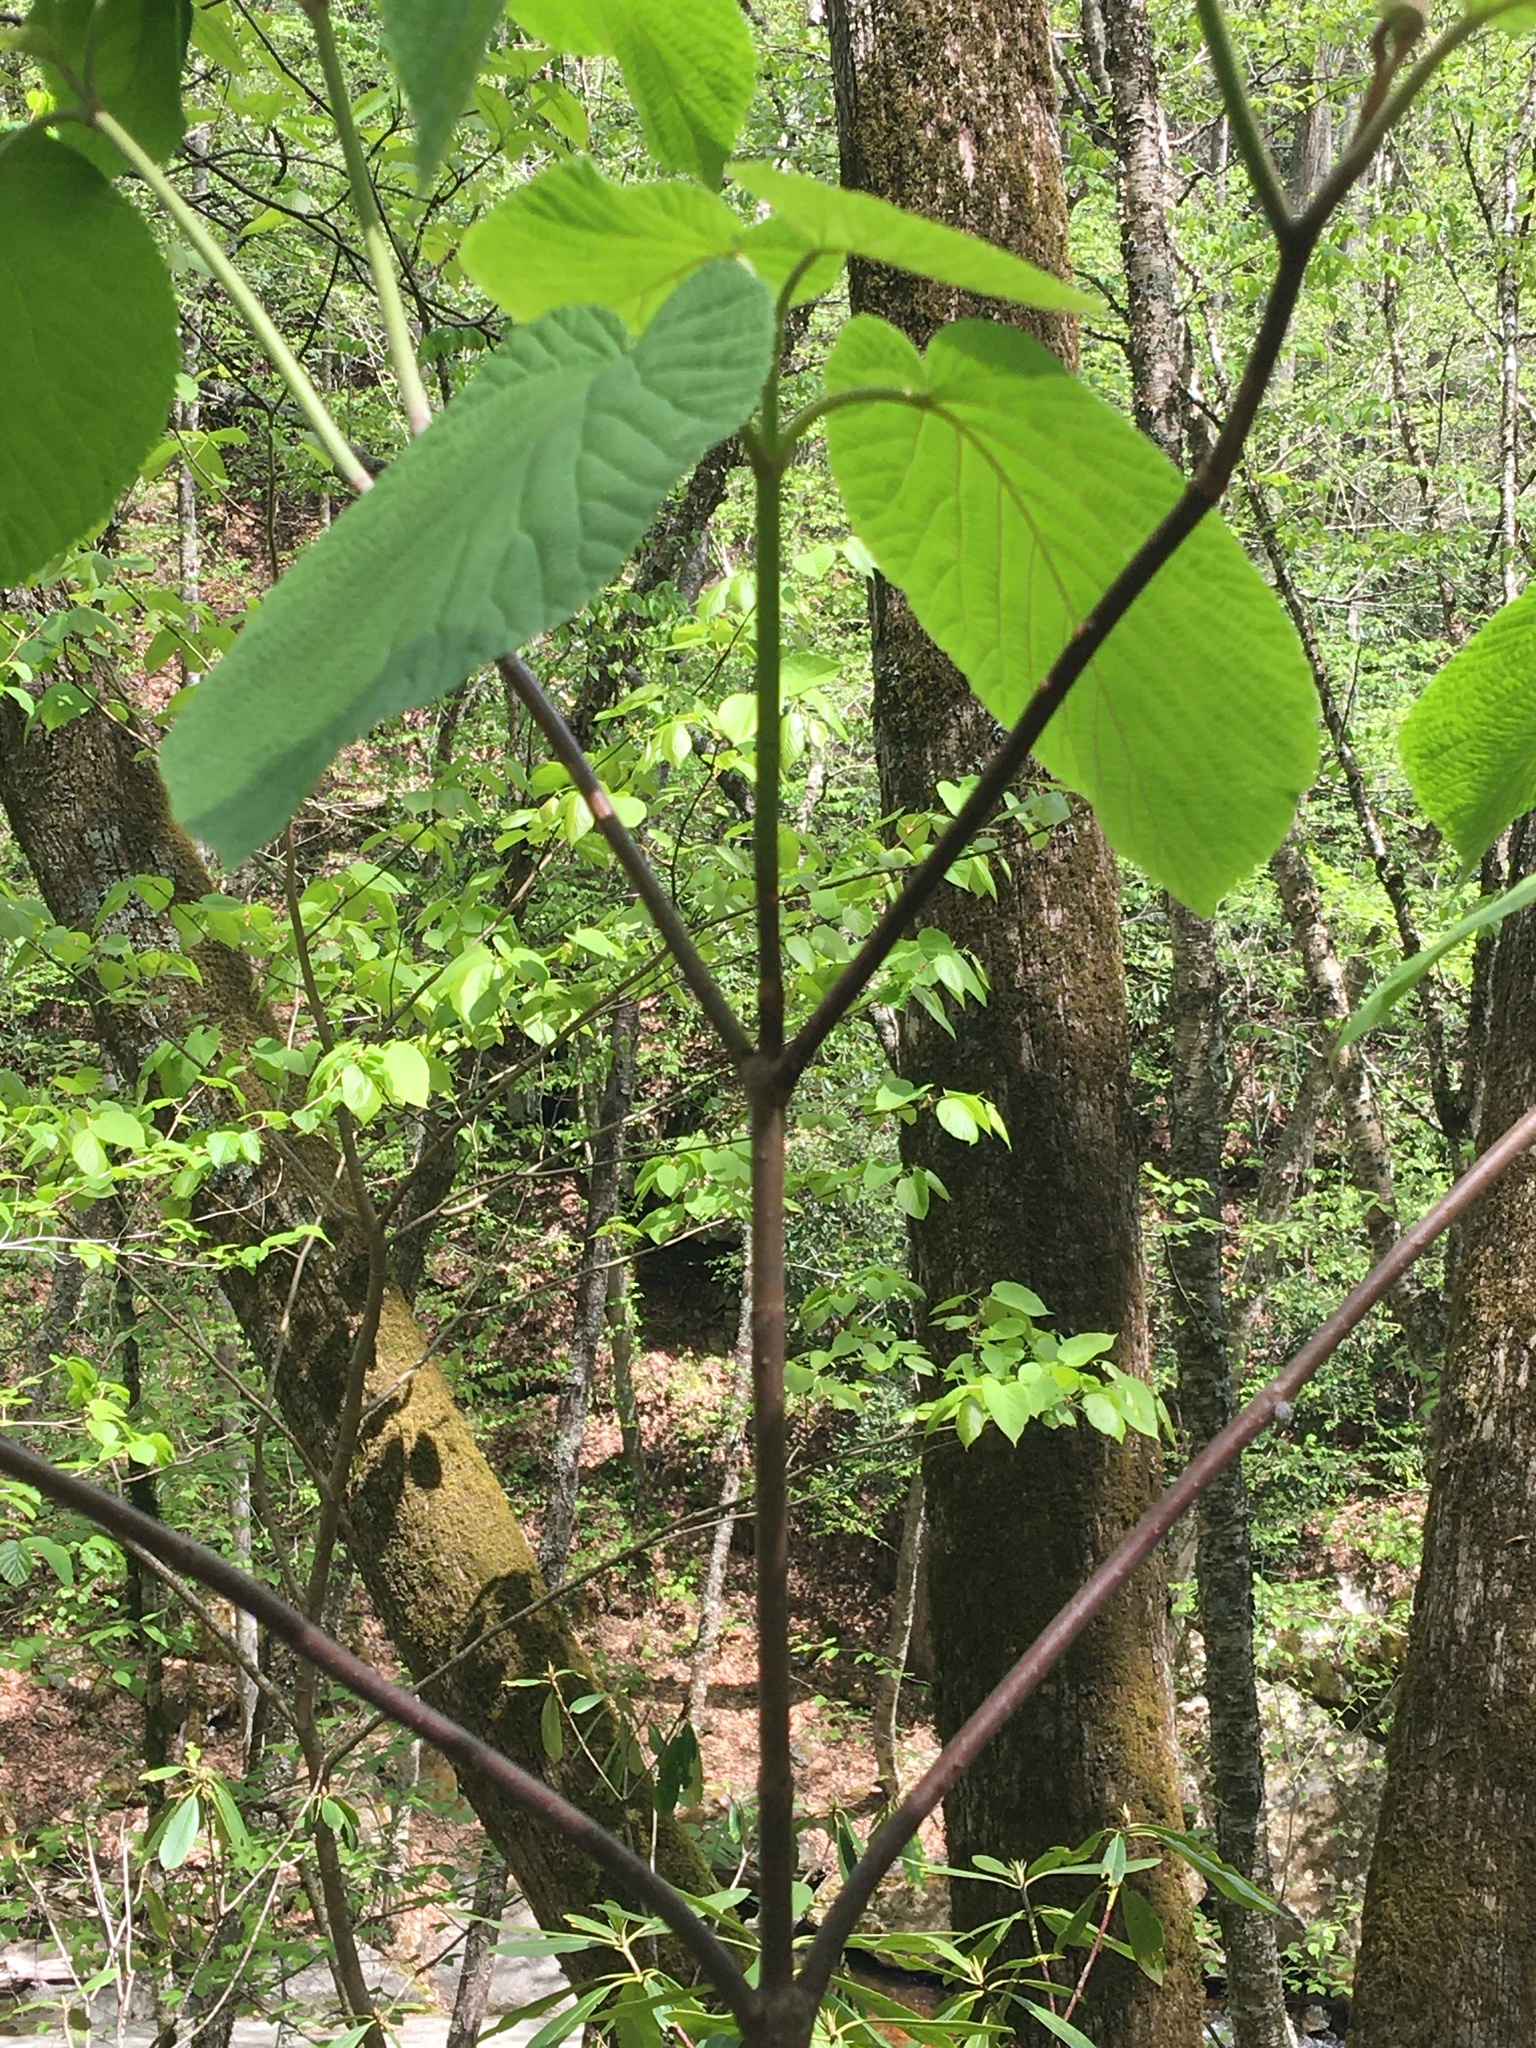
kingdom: Plantae
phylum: Tracheophyta
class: Magnoliopsida
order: Dipsacales
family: Viburnaceae
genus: Viburnum
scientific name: Viburnum lantanoides
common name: Hobblebush
